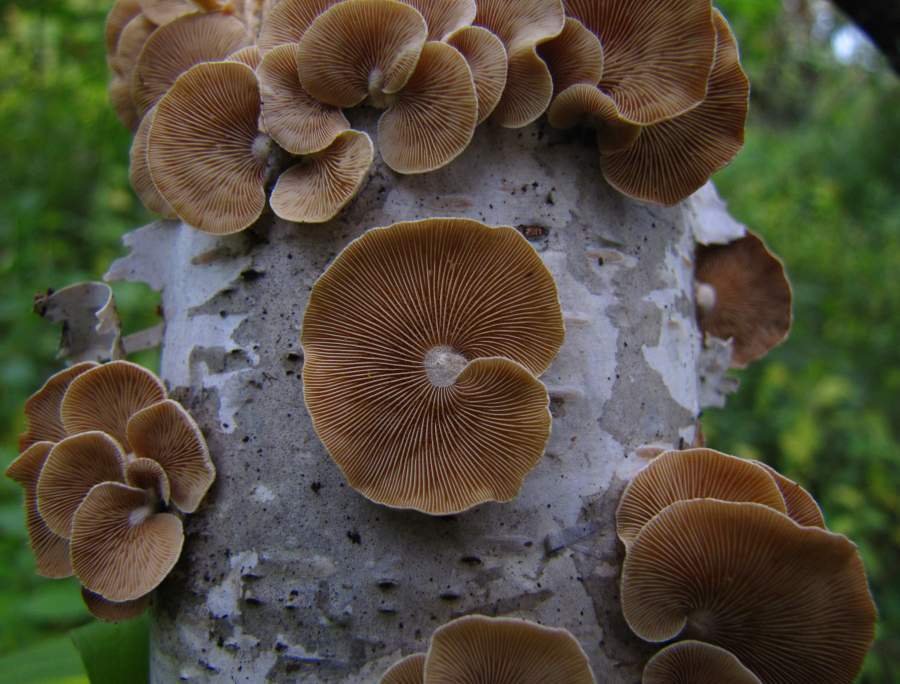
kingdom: Fungi
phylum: Basidiomycota
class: Agaricomycetes
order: Agaricales
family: Mycenaceae
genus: Panellus
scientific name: Panellus stipticus
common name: Bitter oysterling
